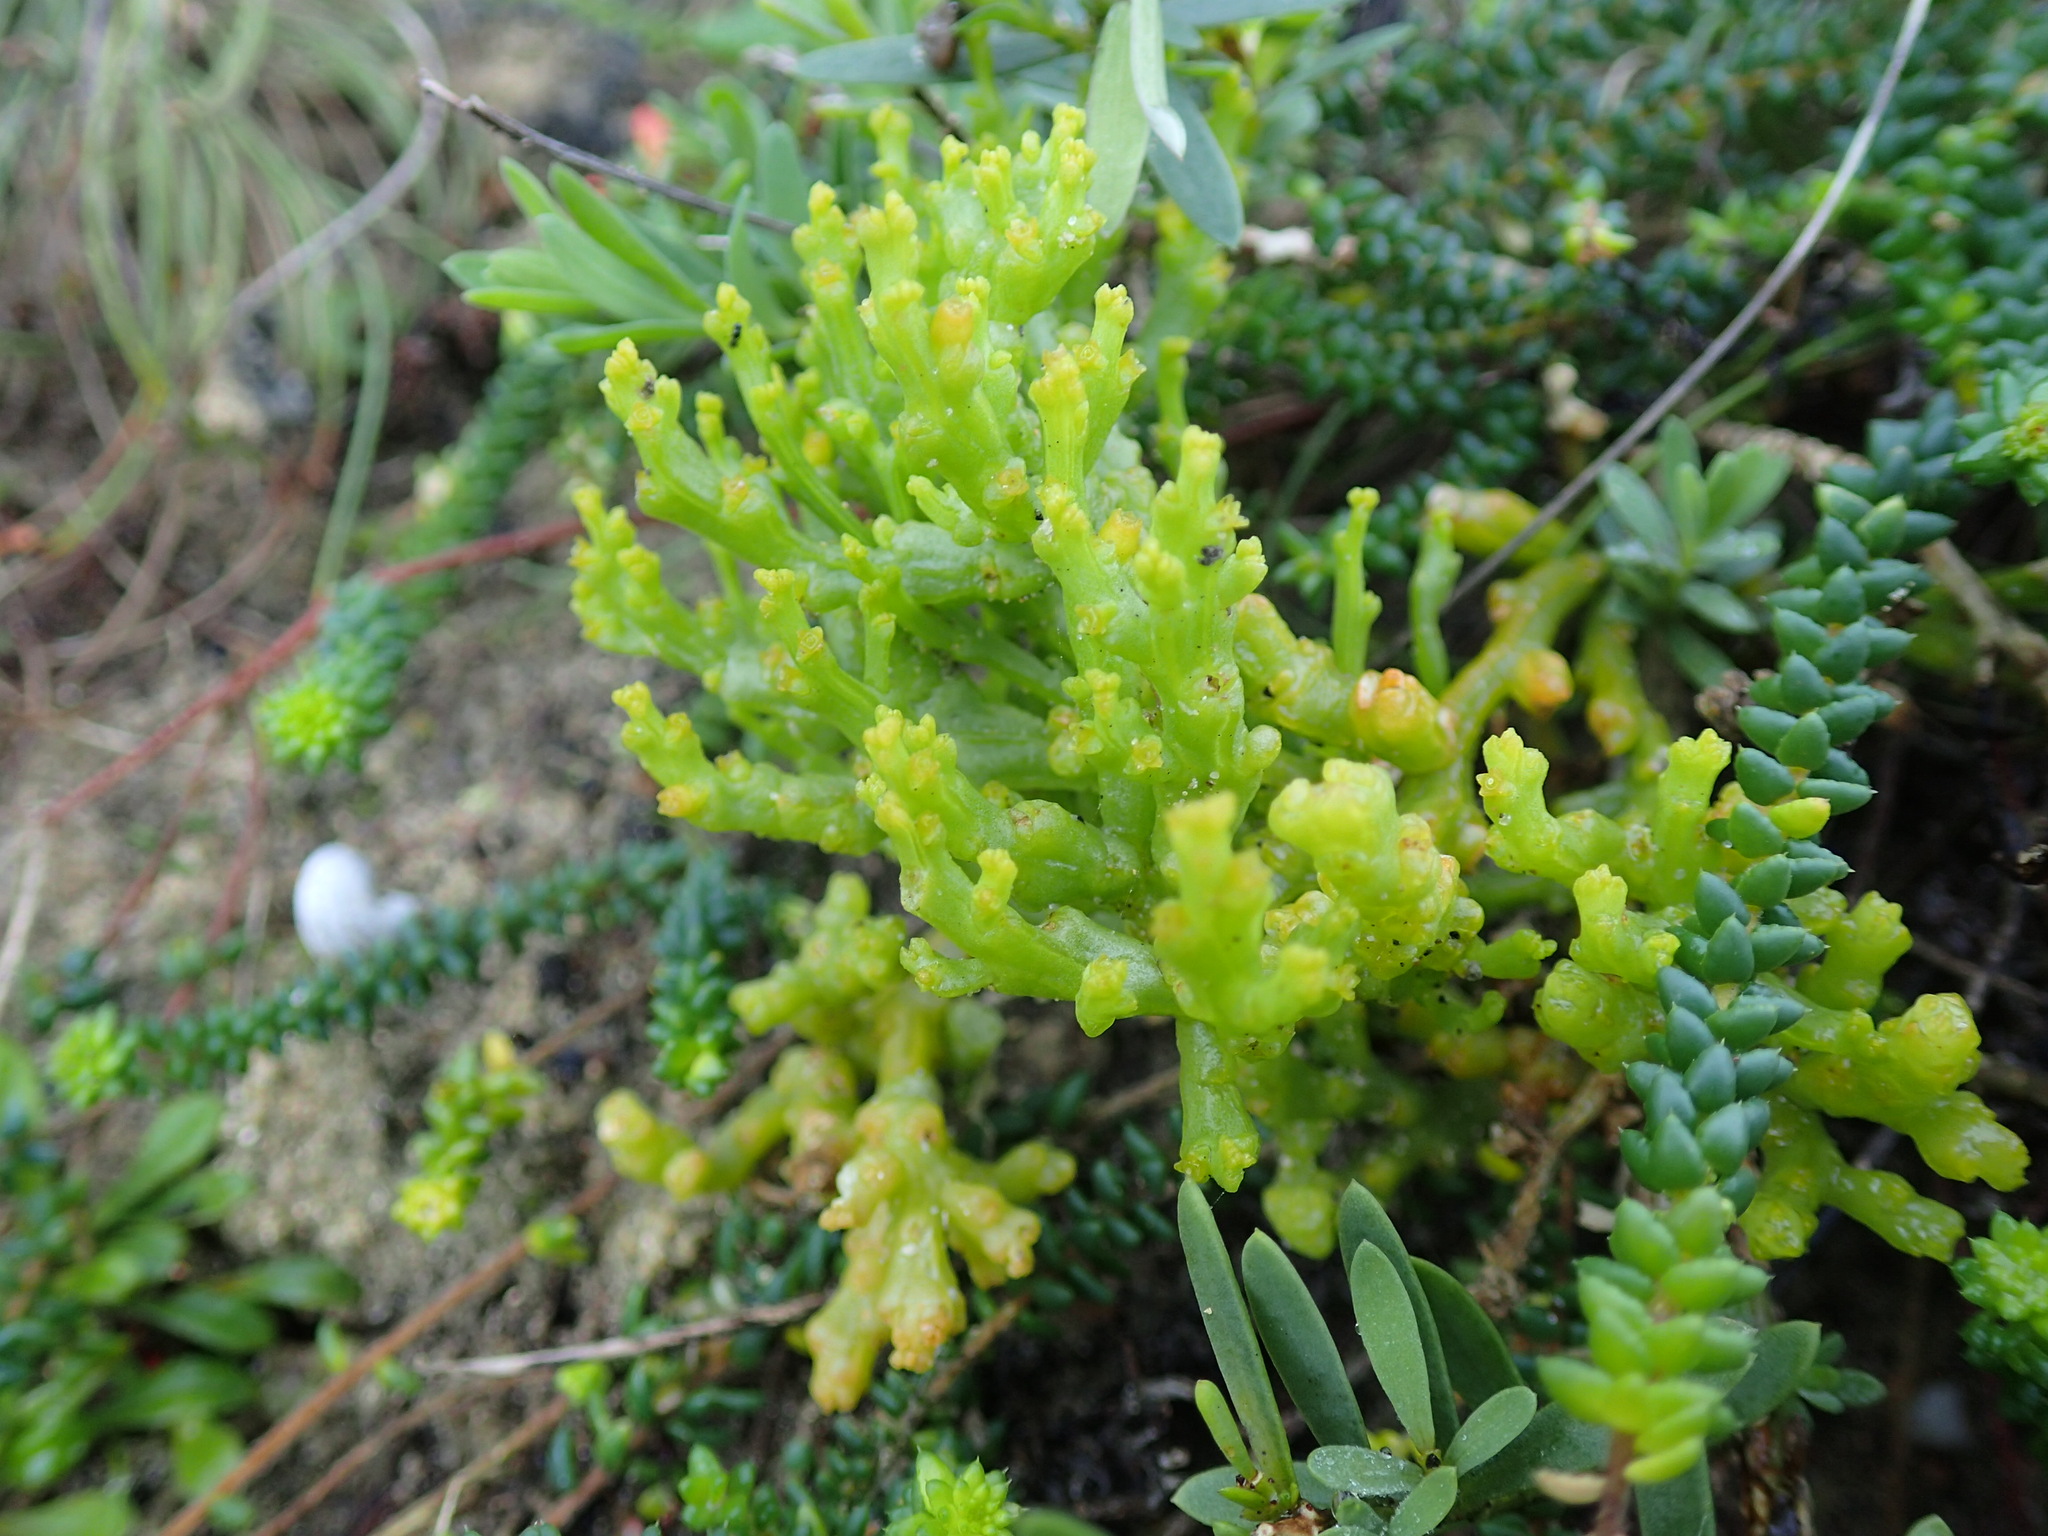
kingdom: Plantae
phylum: Tracheophyta
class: Magnoliopsida
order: Santalales
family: Thesiaceae
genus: Thesium
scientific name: Thesium fragile
